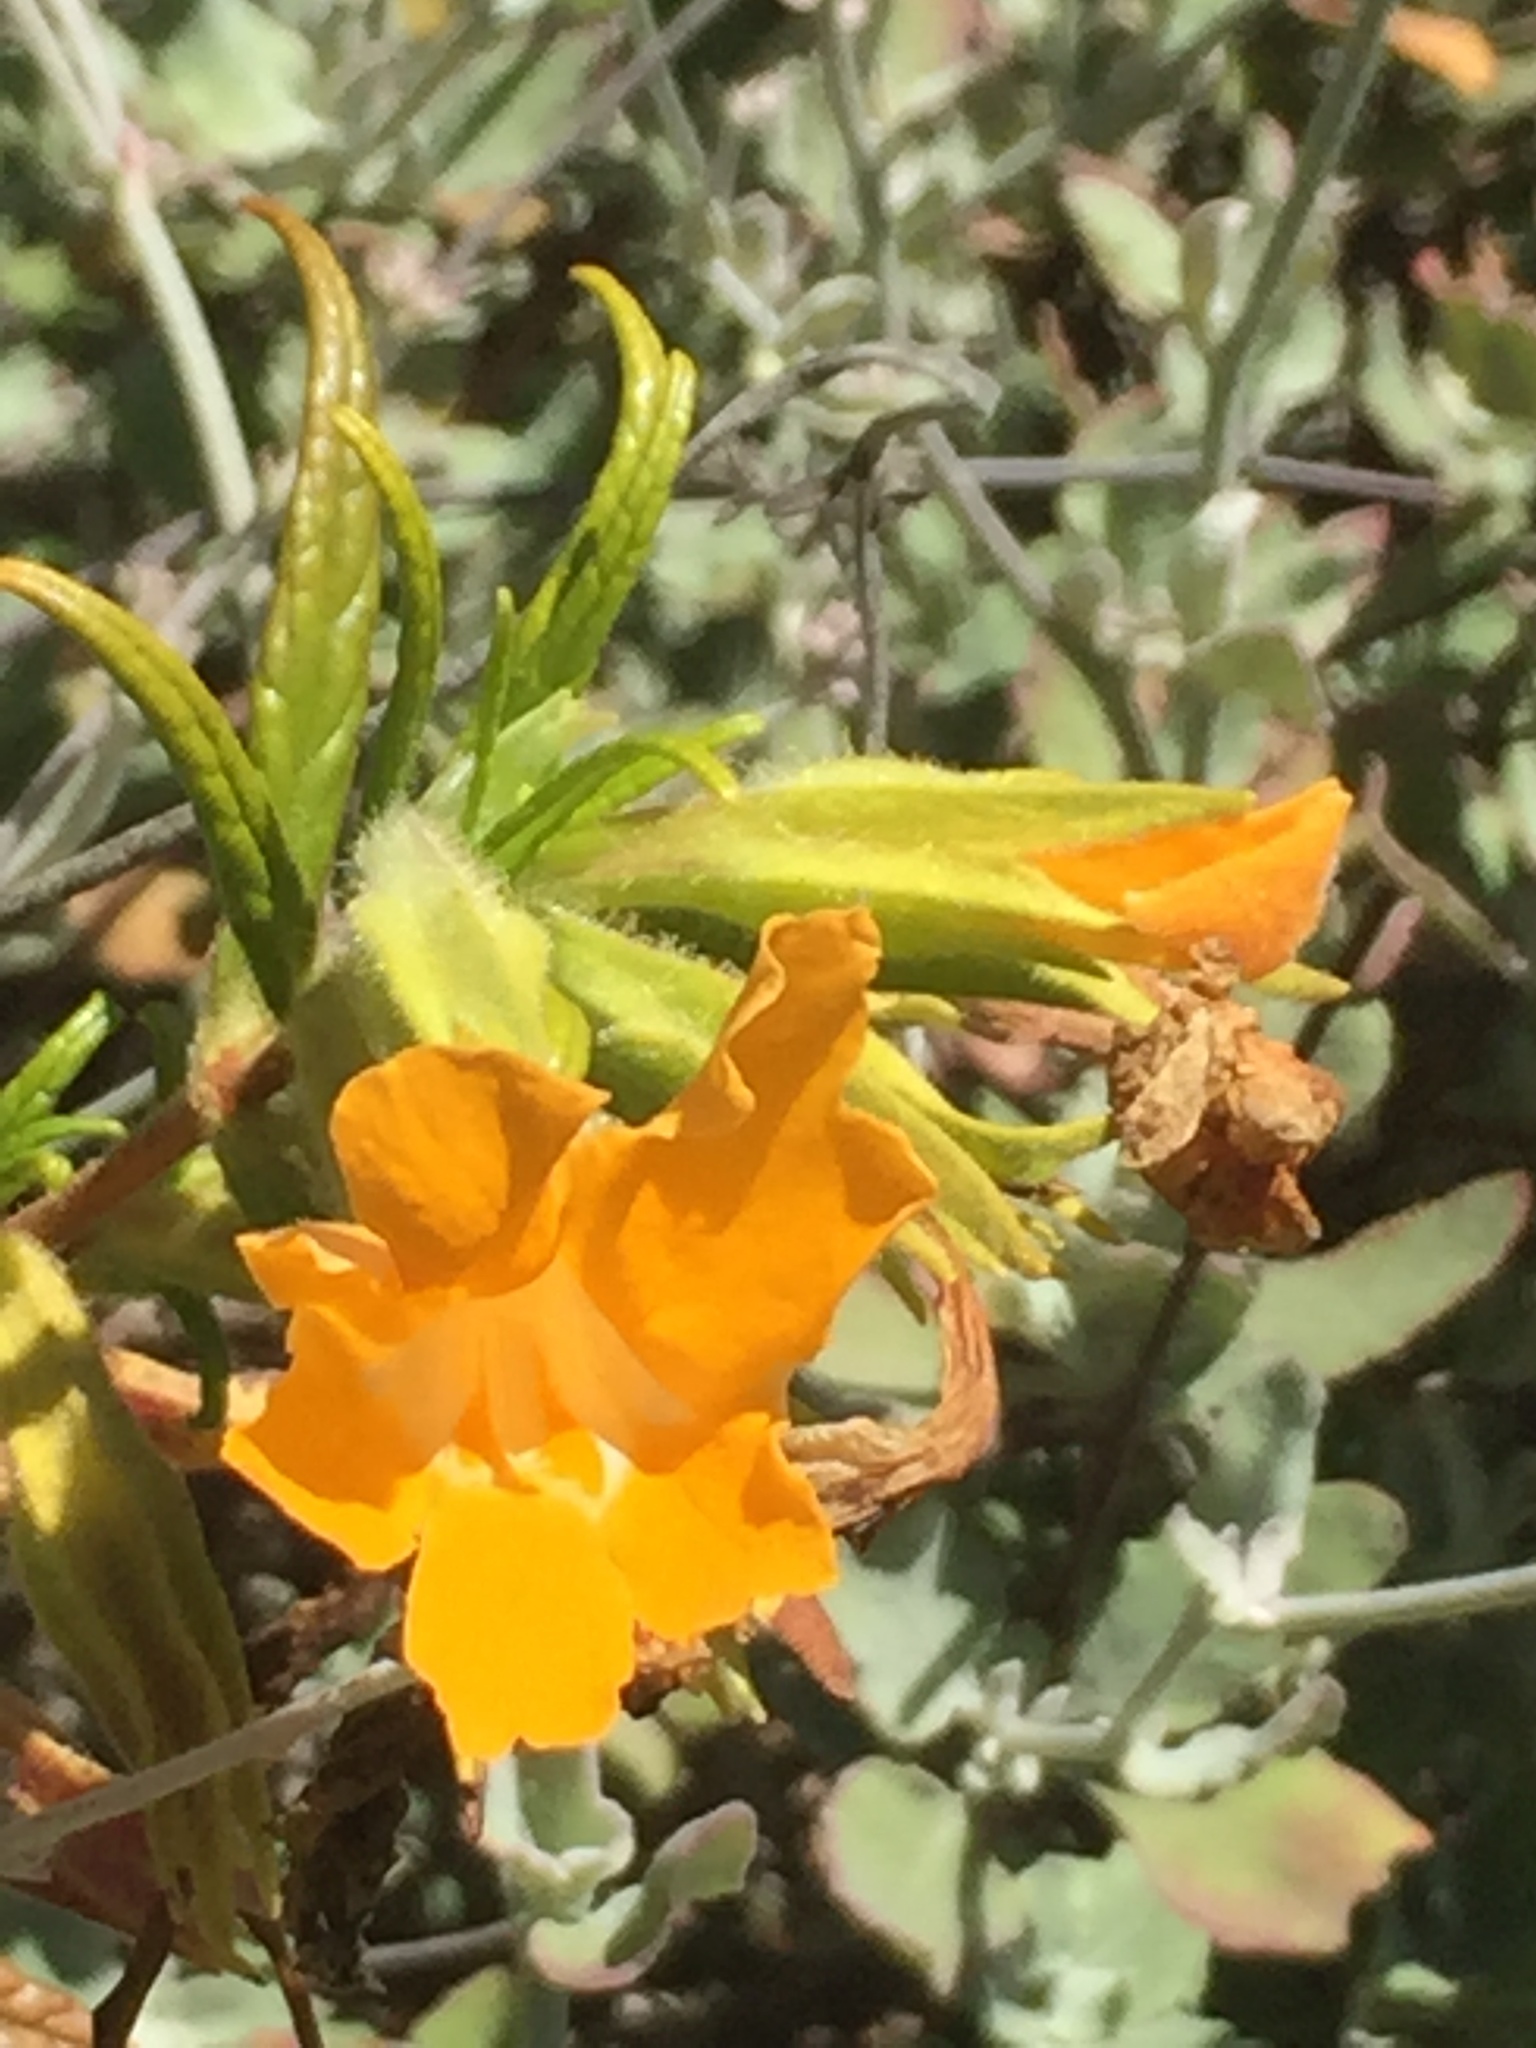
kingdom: Plantae
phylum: Tracheophyta
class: Magnoliopsida
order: Lamiales
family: Phrymaceae
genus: Diplacus
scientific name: Diplacus longiflorus
